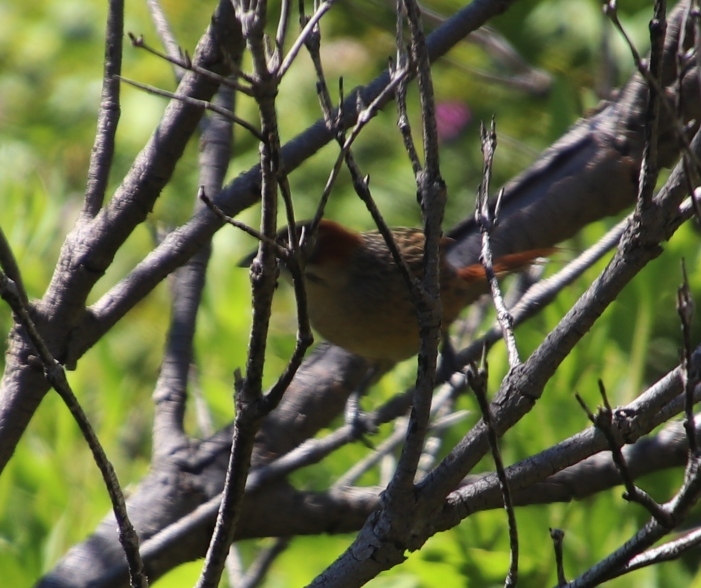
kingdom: Animalia
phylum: Chordata
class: Aves
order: Passeriformes
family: Macrosphenidae
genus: Sphenoeacus
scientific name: Sphenoeacus afer
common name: Cape grassbird
